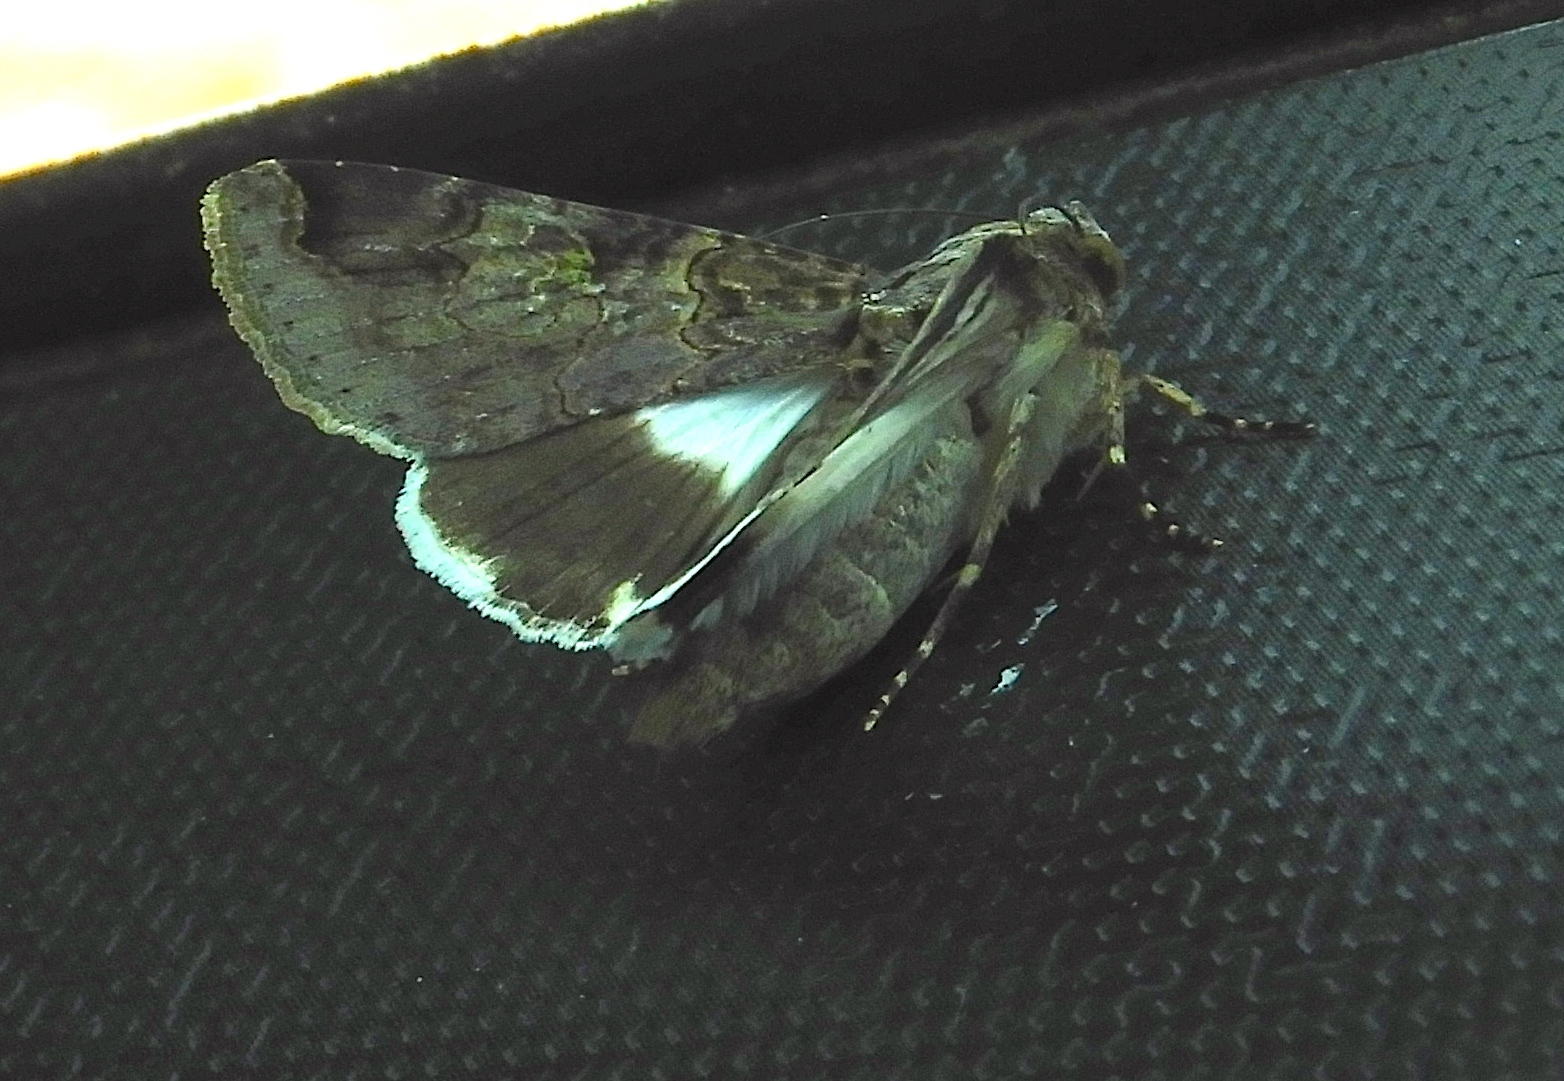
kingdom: Animalia
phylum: Arthropoda
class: Insecta
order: Lepidoptera
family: Erebidae
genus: Melipotis
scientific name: Melipotis famelica
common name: Famelica melipotis moth
